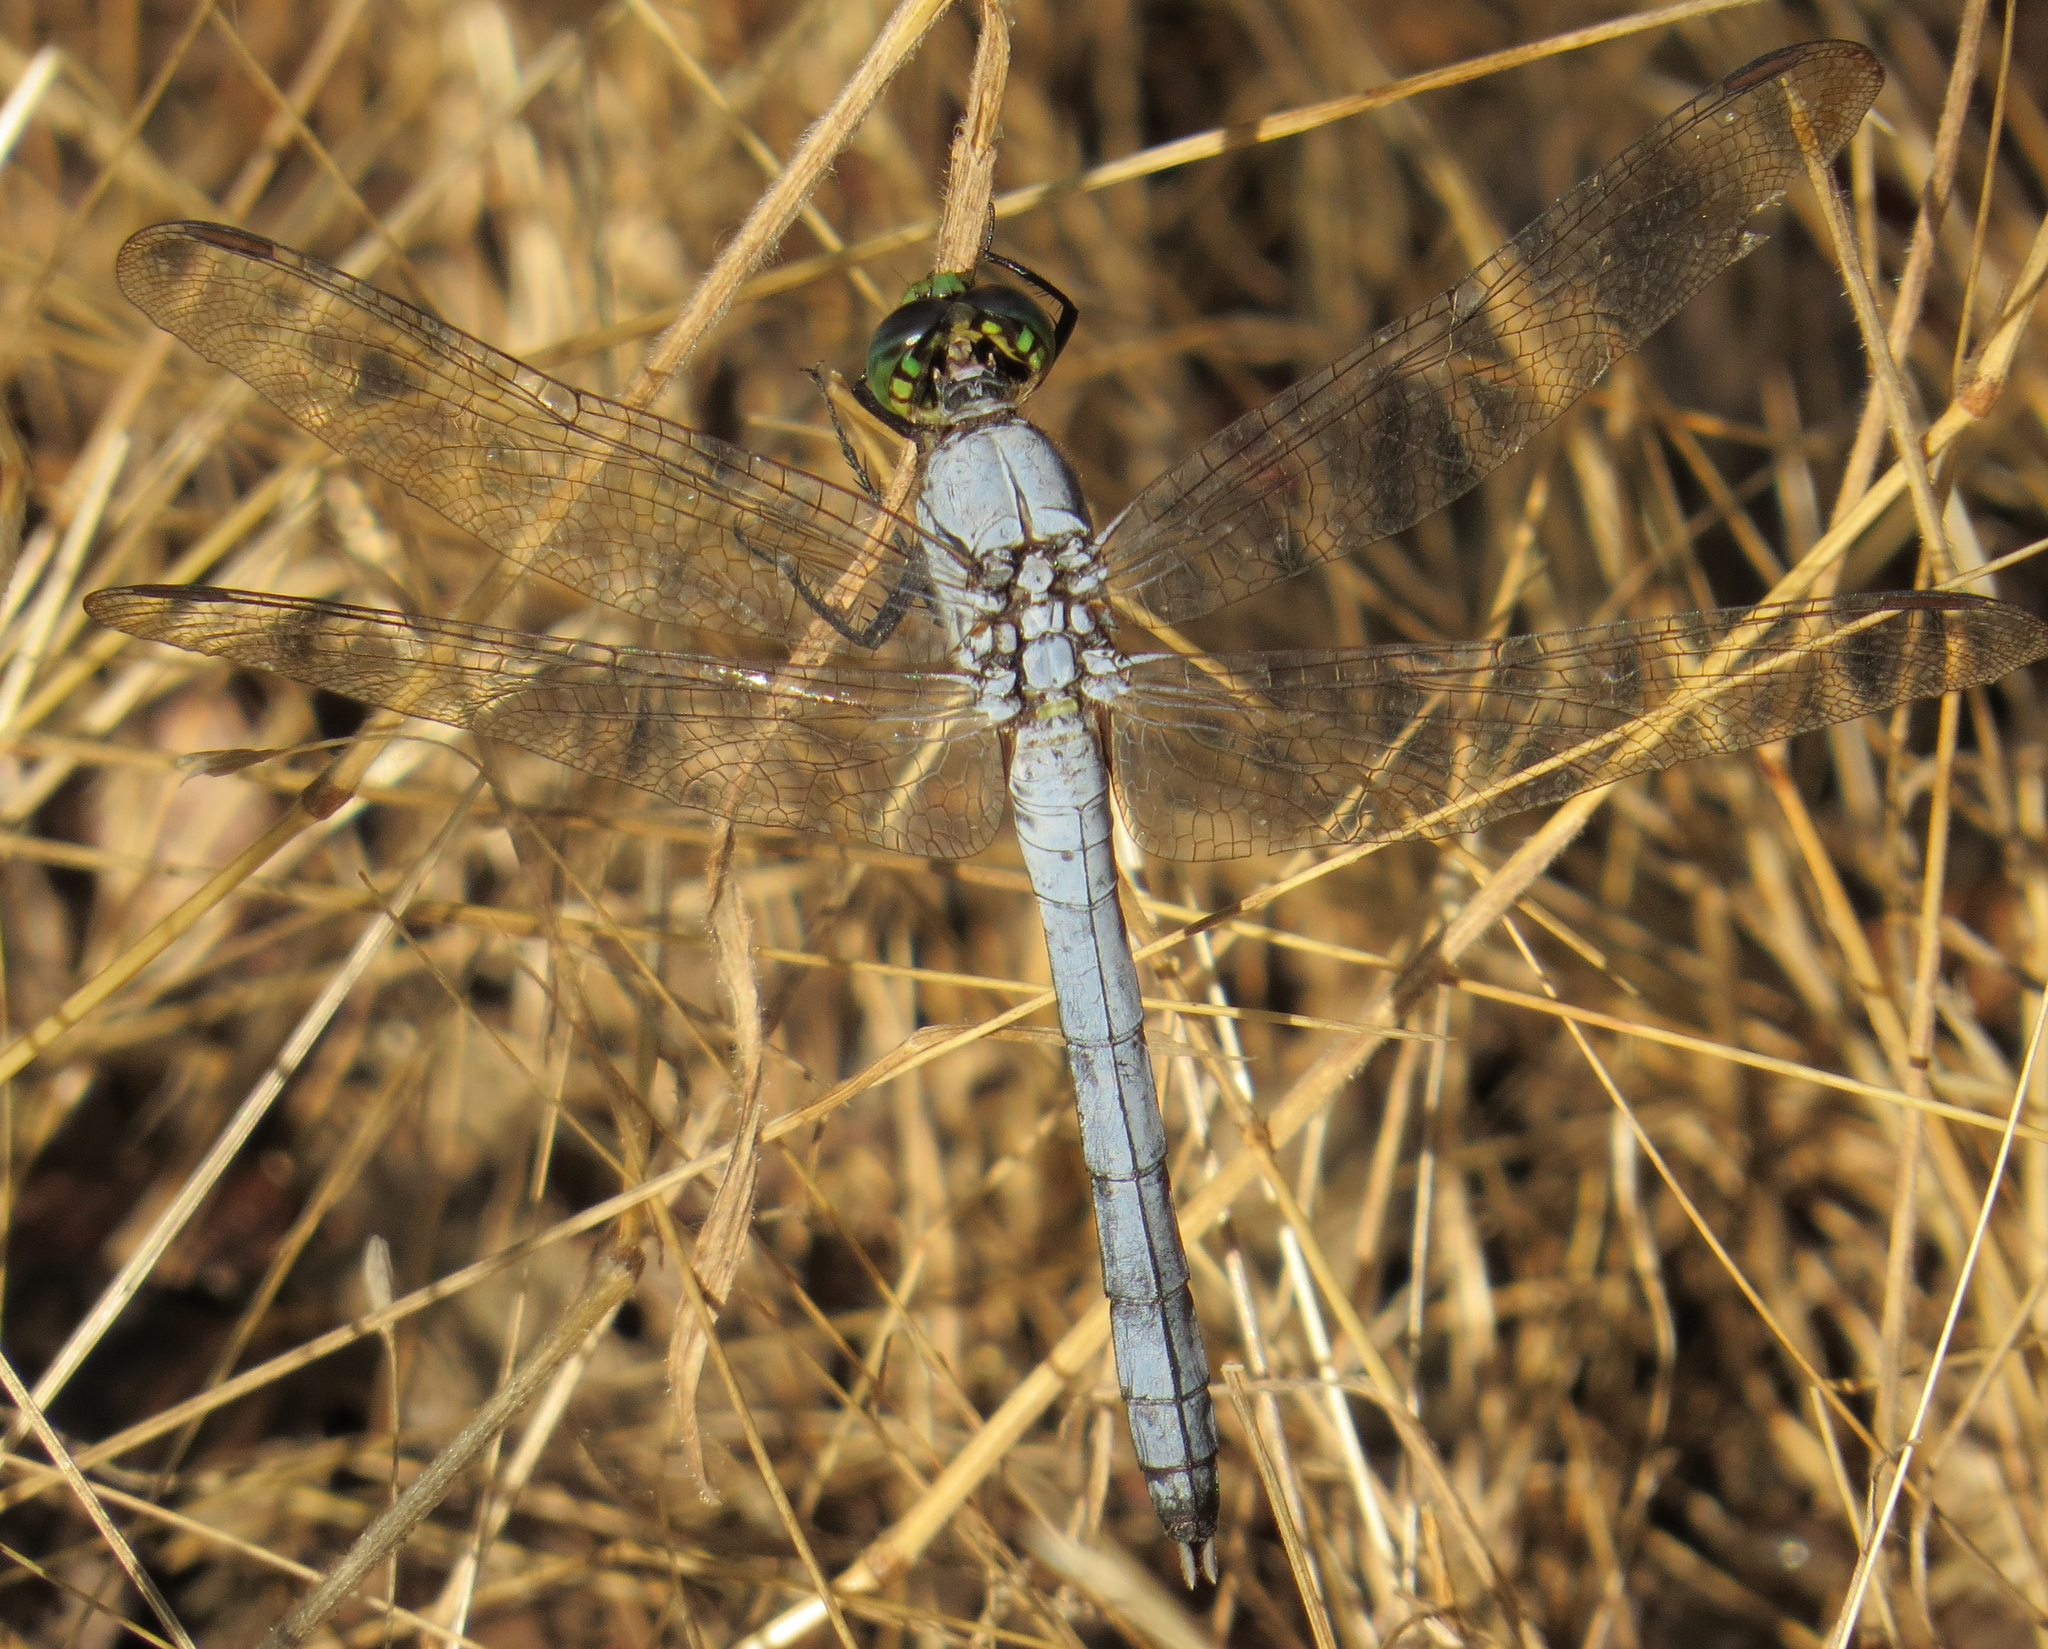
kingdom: Animalia
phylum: Arthropoda
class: Insecta
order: Odonata
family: Libellulidae
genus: Erythemis
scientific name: Erythemis simplicicollis
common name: Eastern pondhawk
